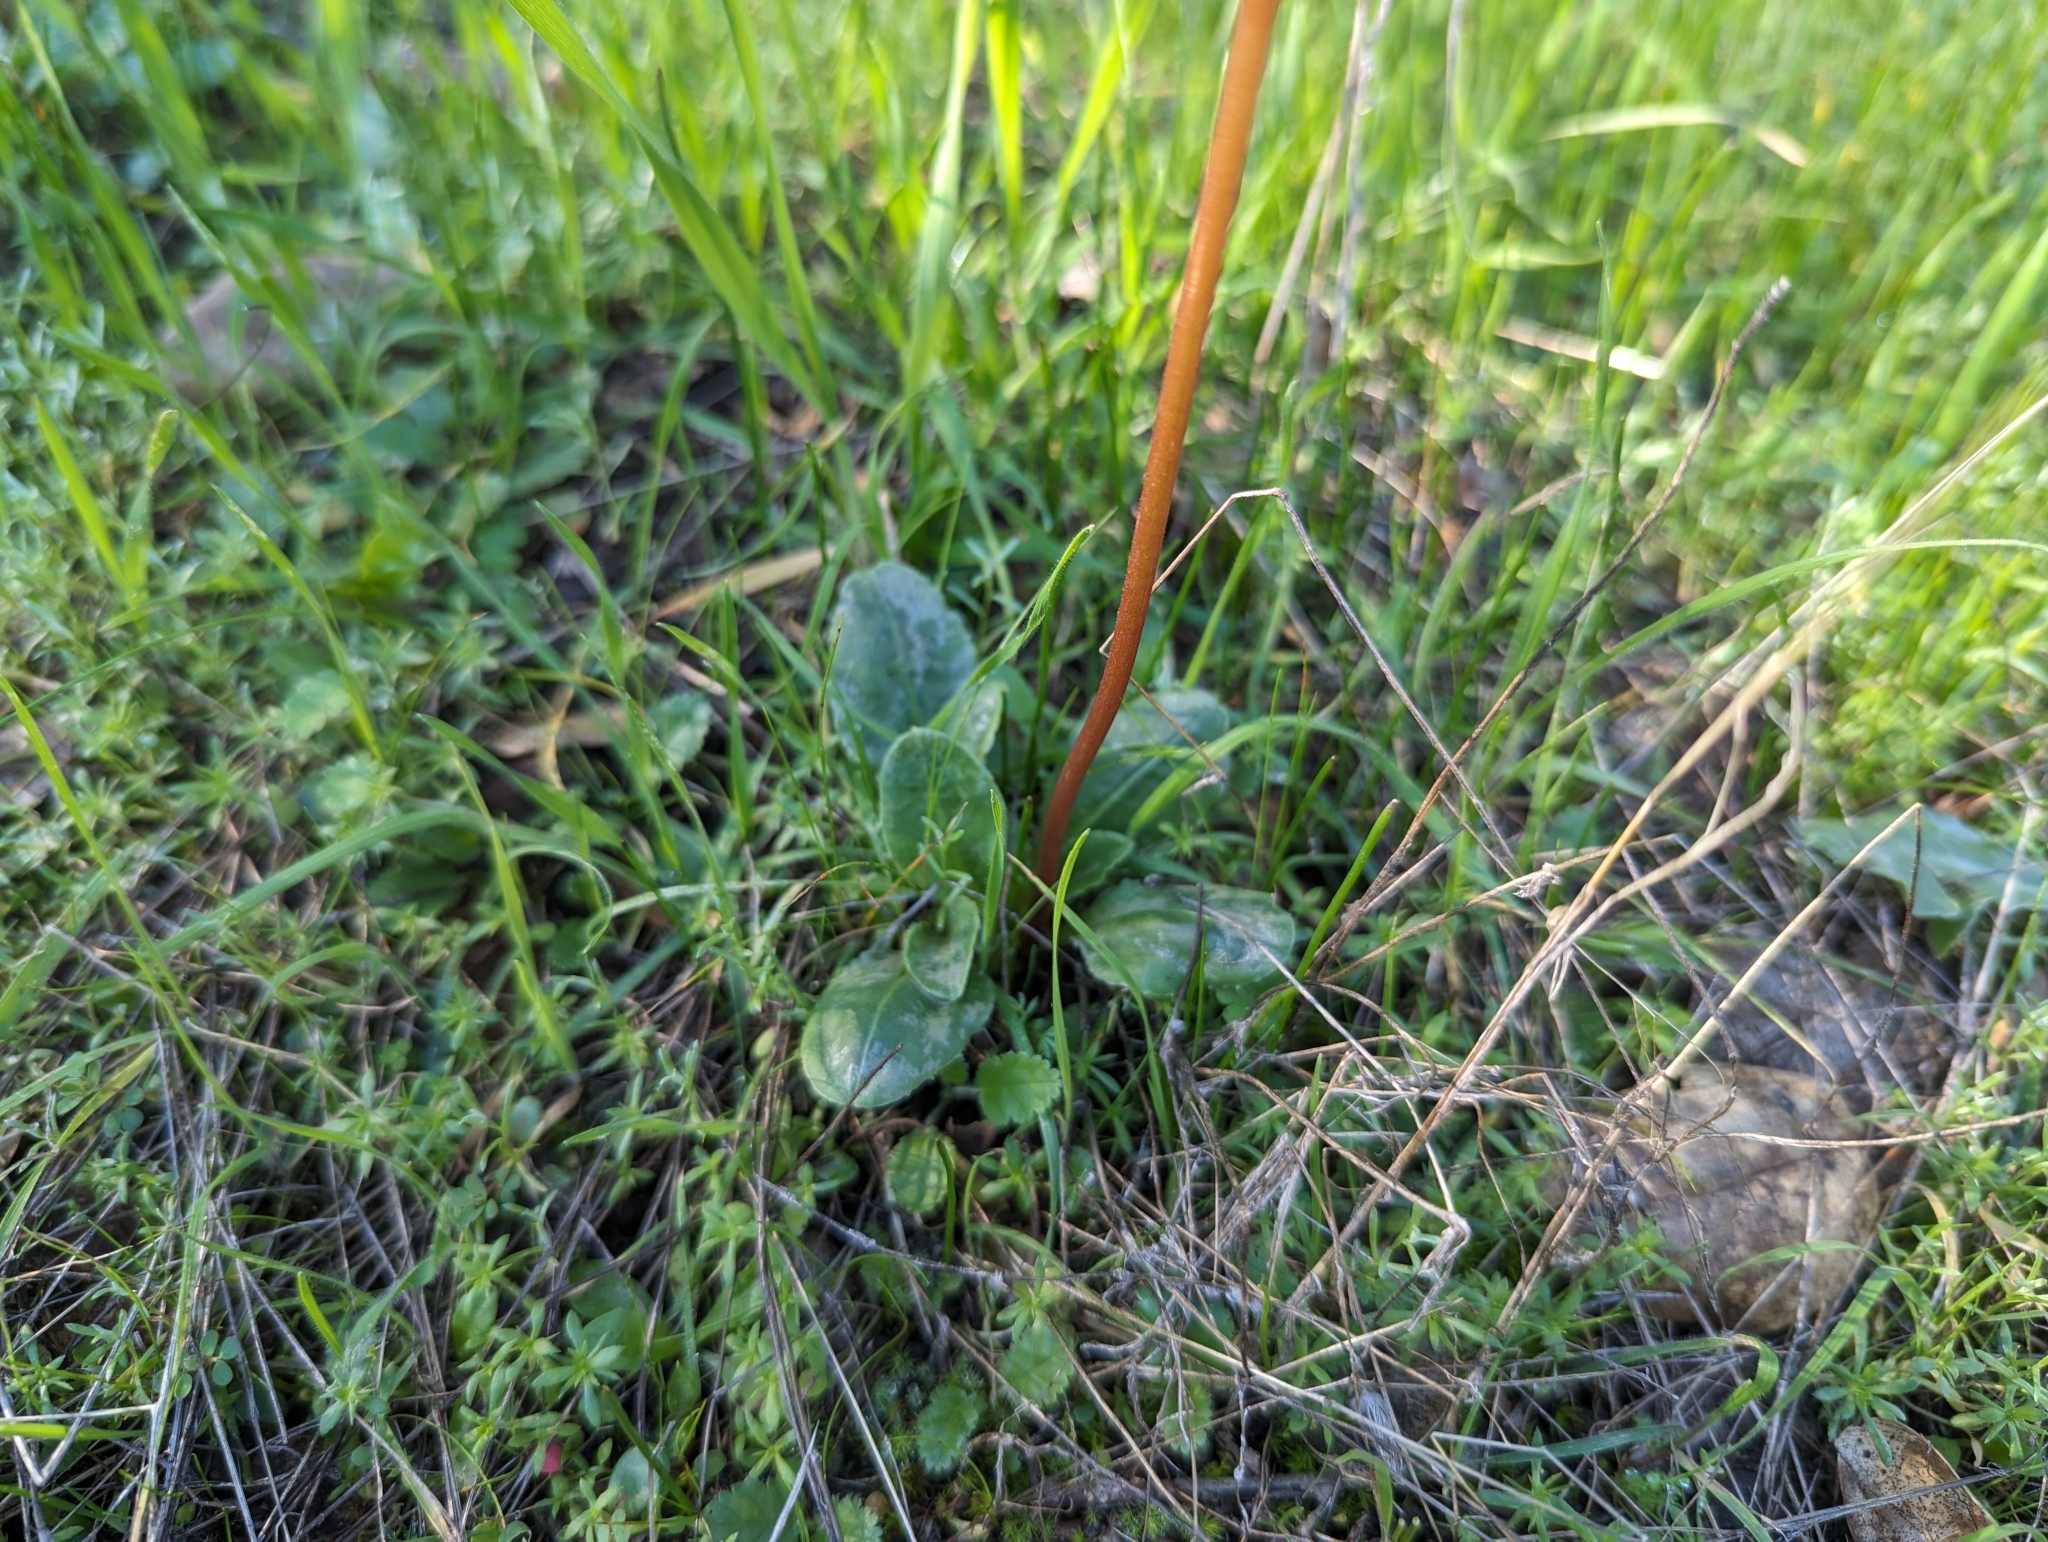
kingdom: Plantae
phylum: Tracheophyta
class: Magnoliopsida
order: Ericales
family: Primulaceae
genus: Dodecatheon
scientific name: Dodecatheon hendersonii
